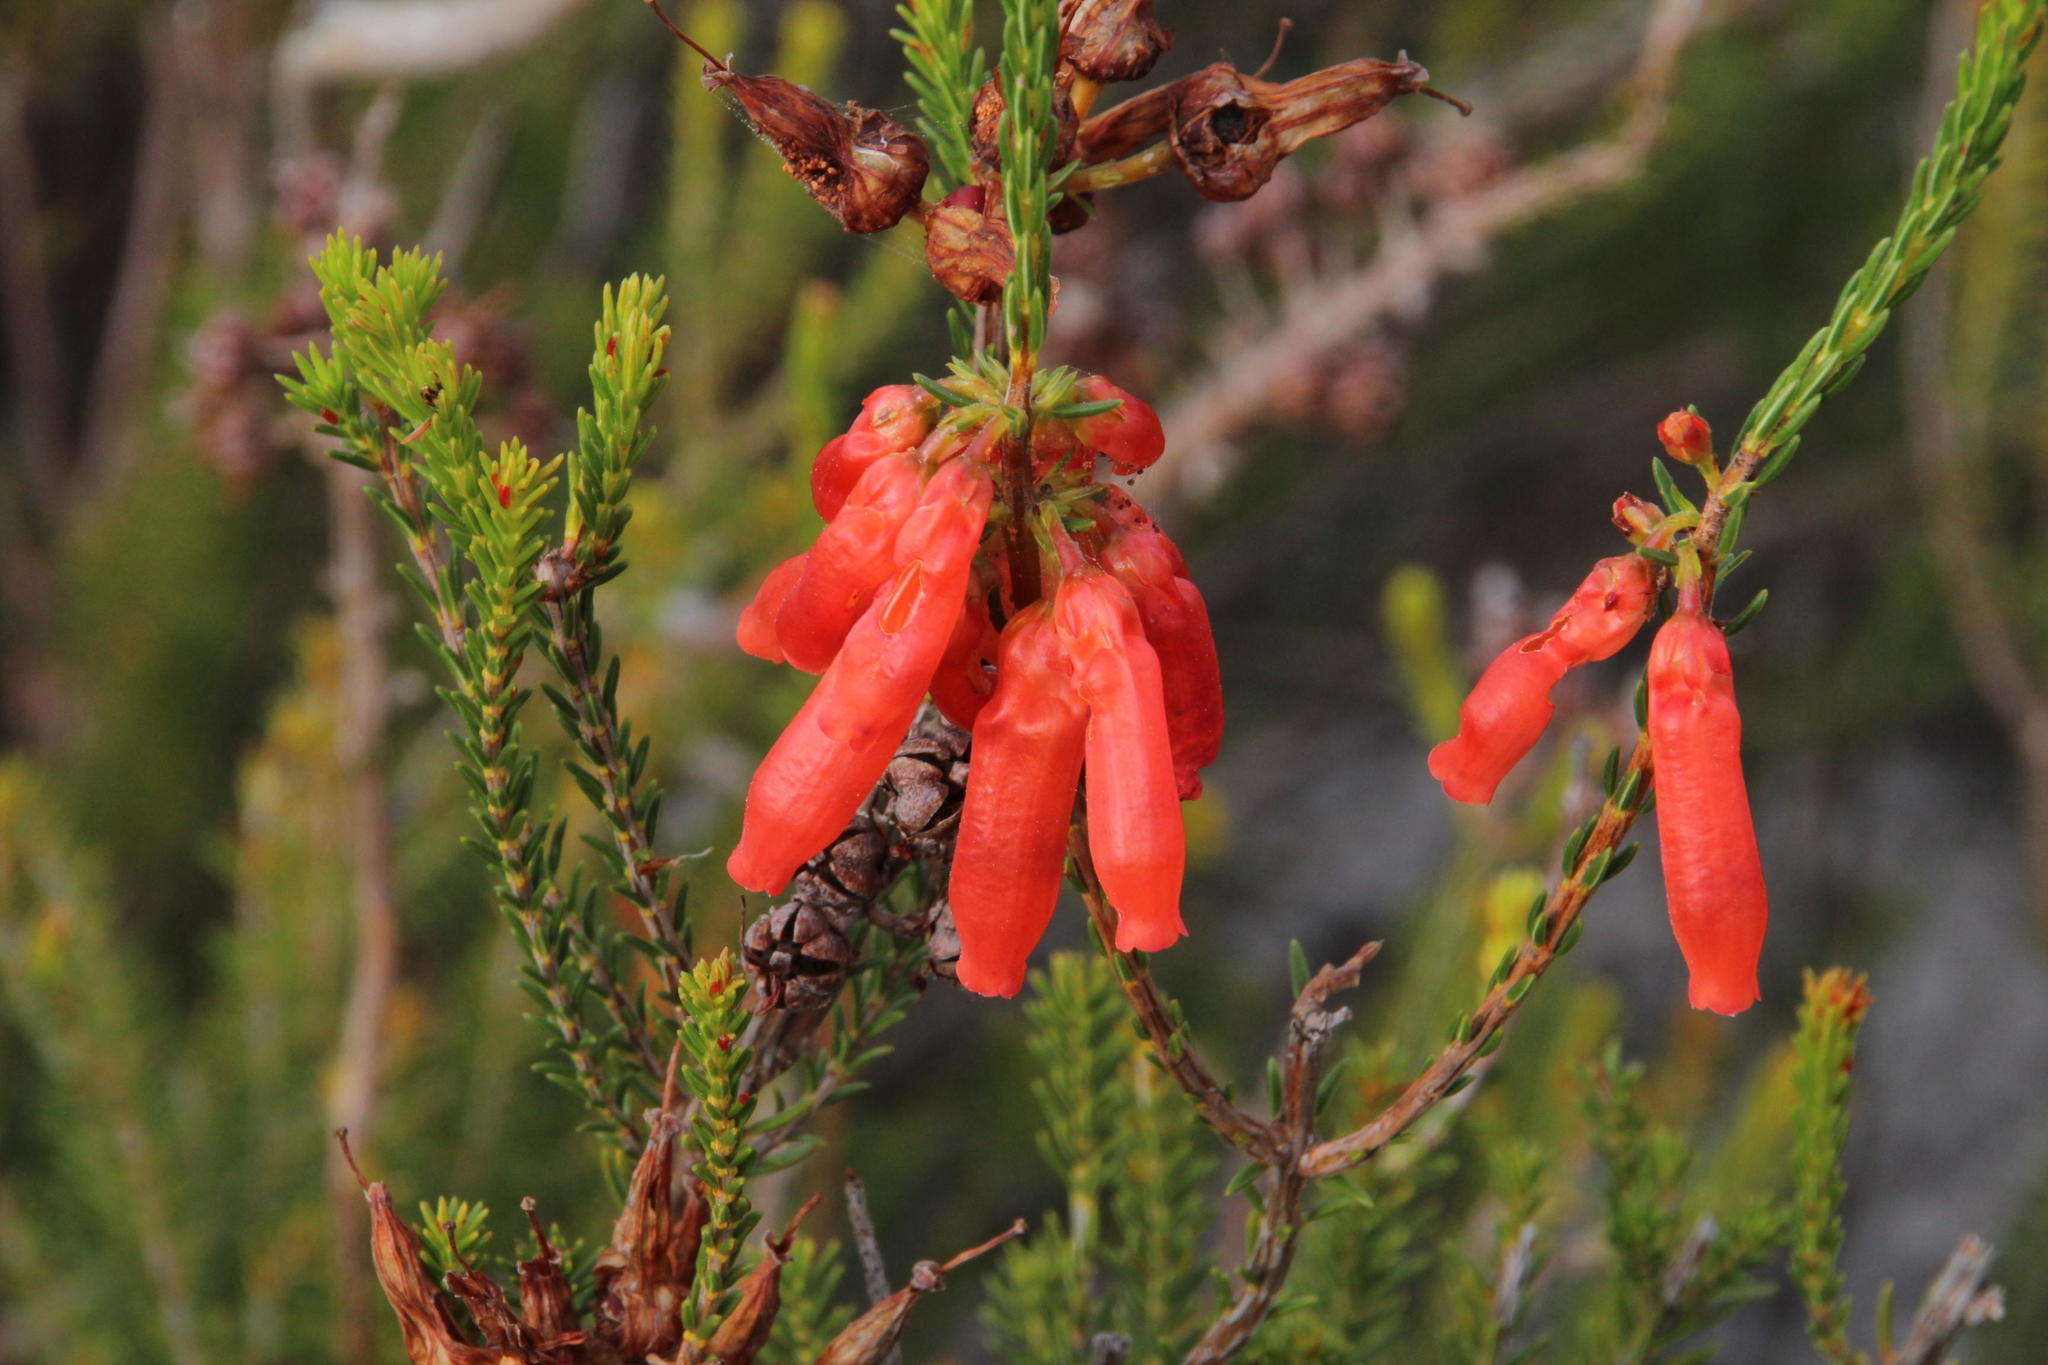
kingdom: Plantae
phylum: Tracheophyta
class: Magnoliopsida
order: Ericales
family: Ericaceae
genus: Erica
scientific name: Erica mammosa
